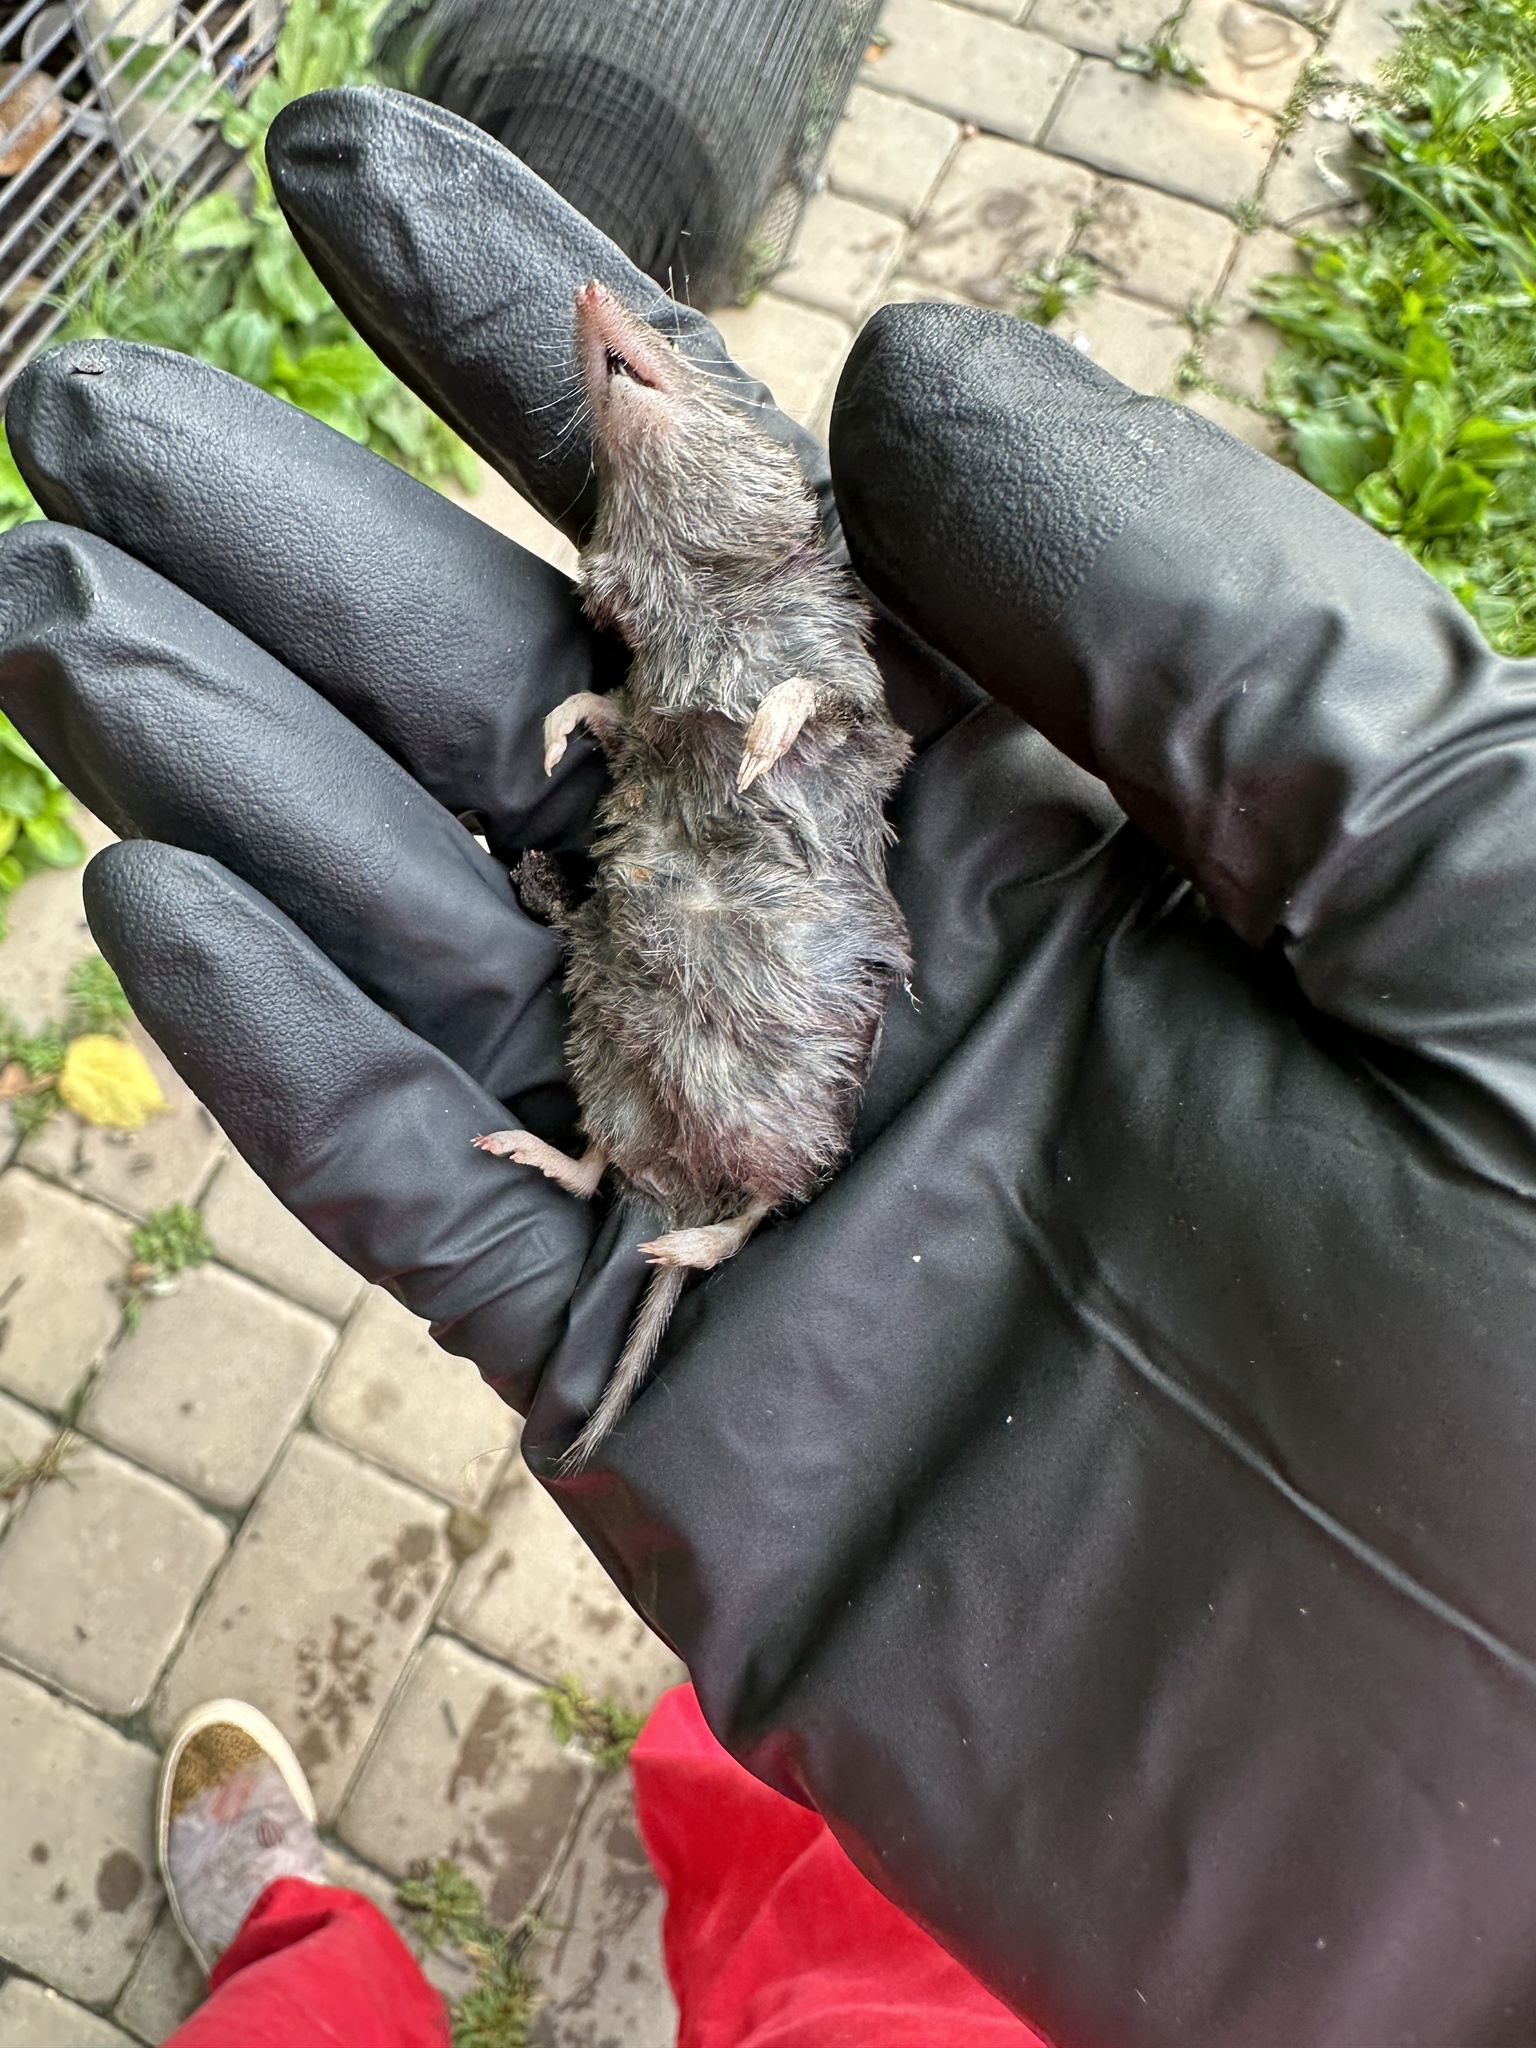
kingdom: Animalia
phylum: Chordata
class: Mammalia
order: Soricomorpha
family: Soricidae
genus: Blarina
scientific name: Blarina brevicauda
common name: Northern short-tailed shrew
